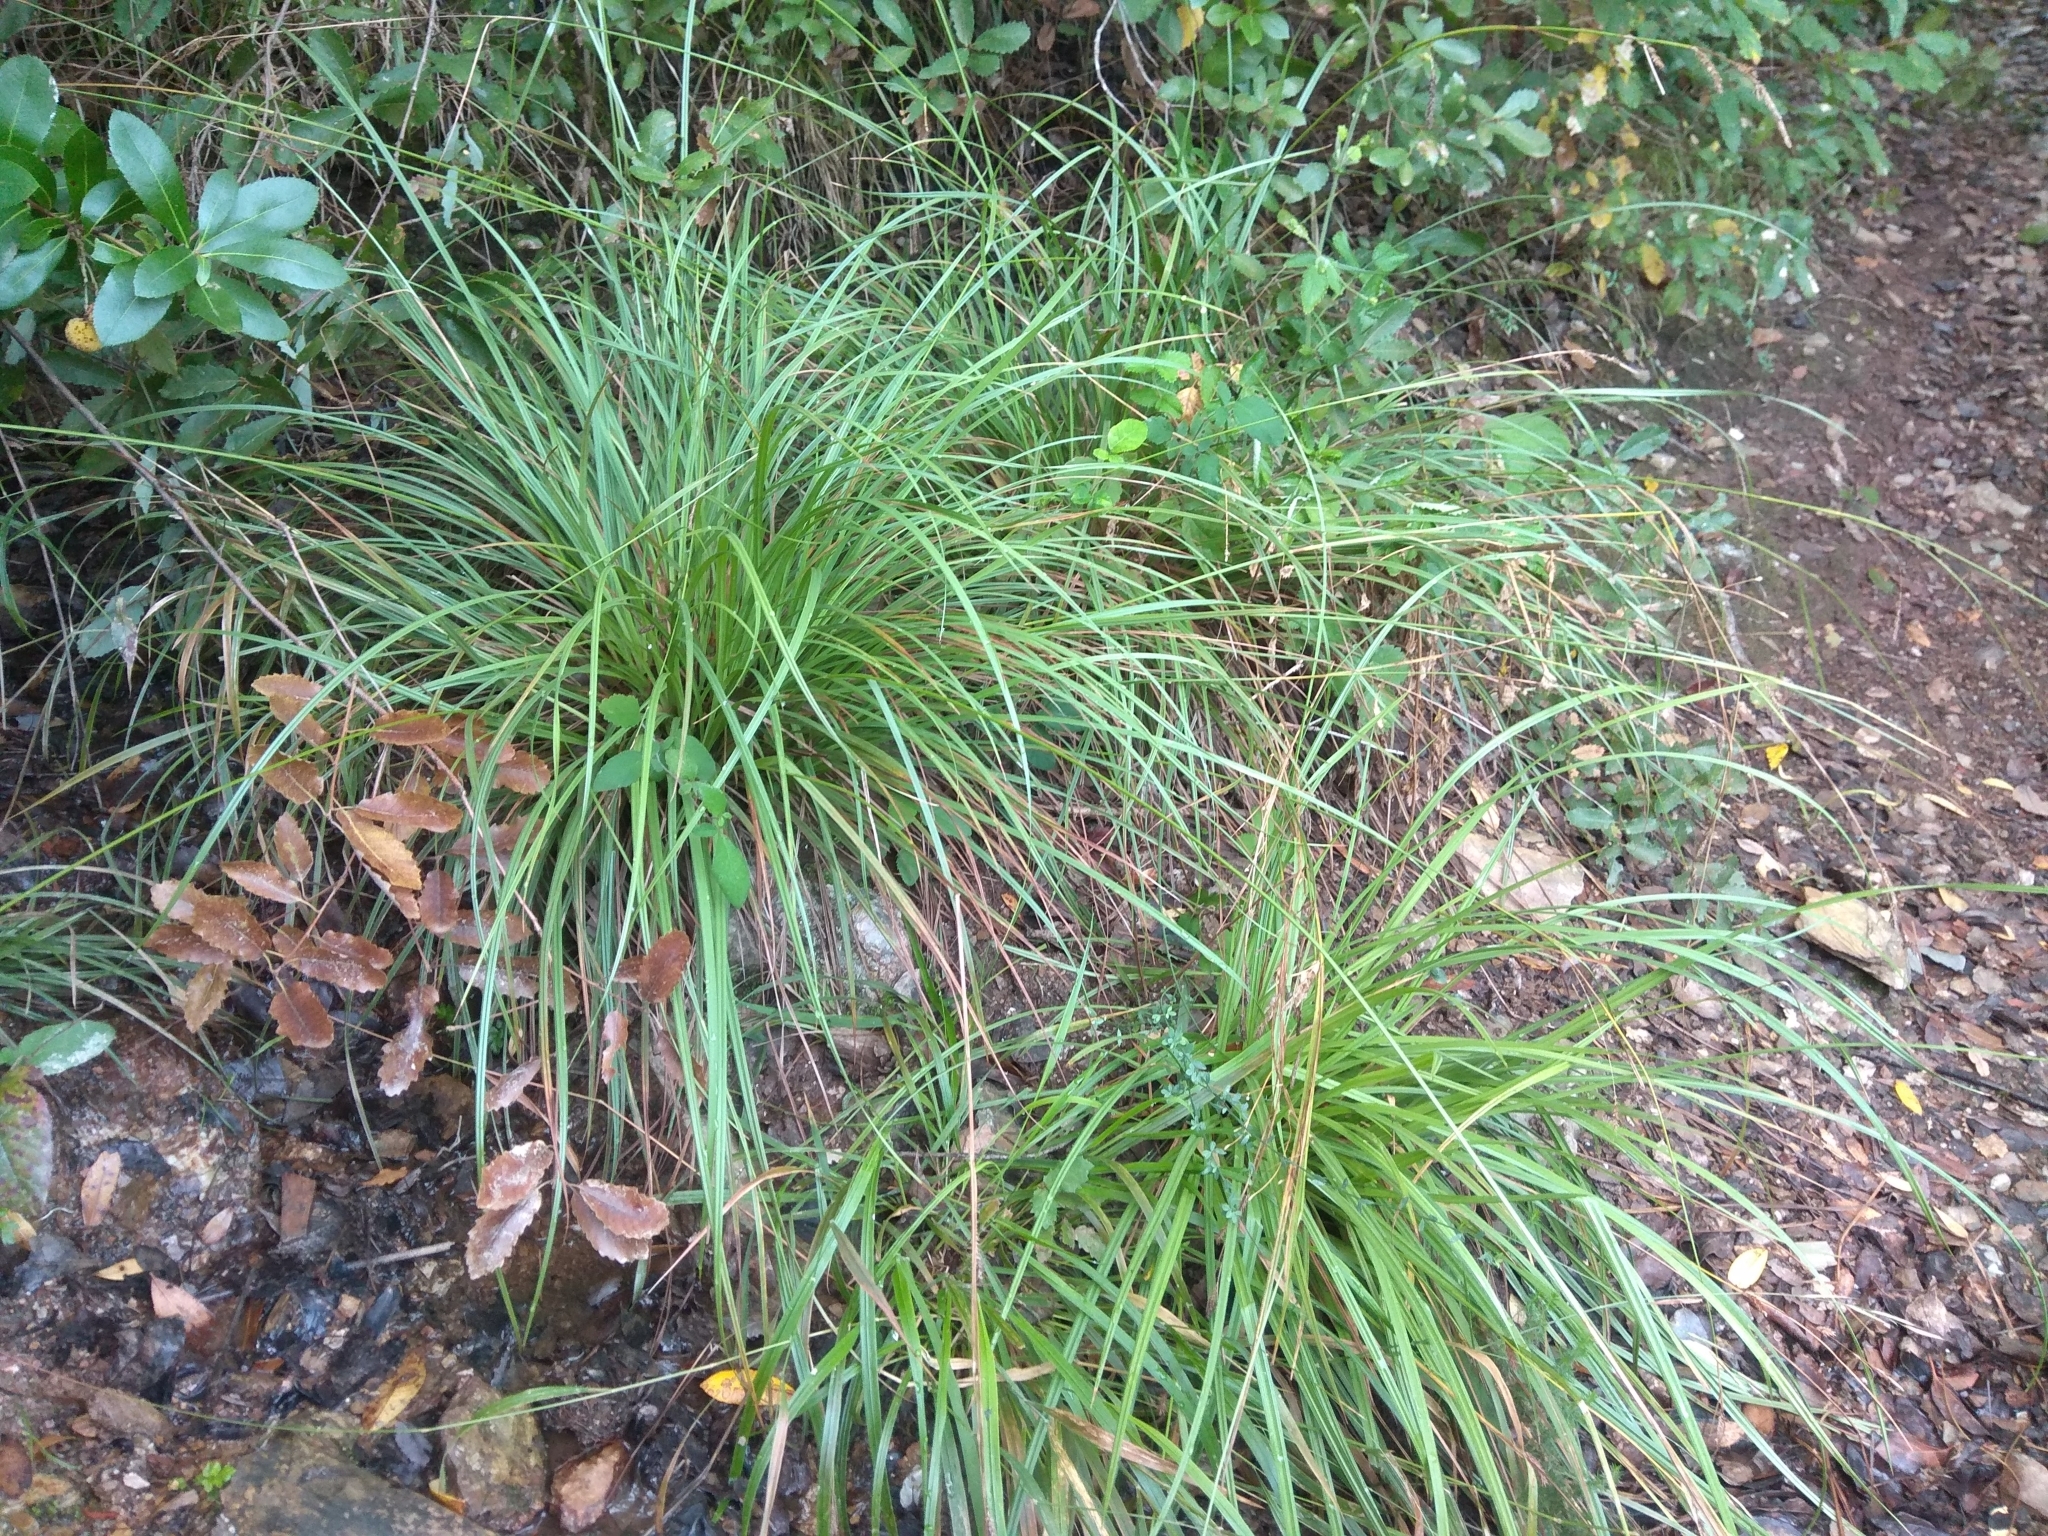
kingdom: Plantae
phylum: Tracheophyta
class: Liliopsida
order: Poales
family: Cyperaceae
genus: Carex
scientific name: Carex helodes
